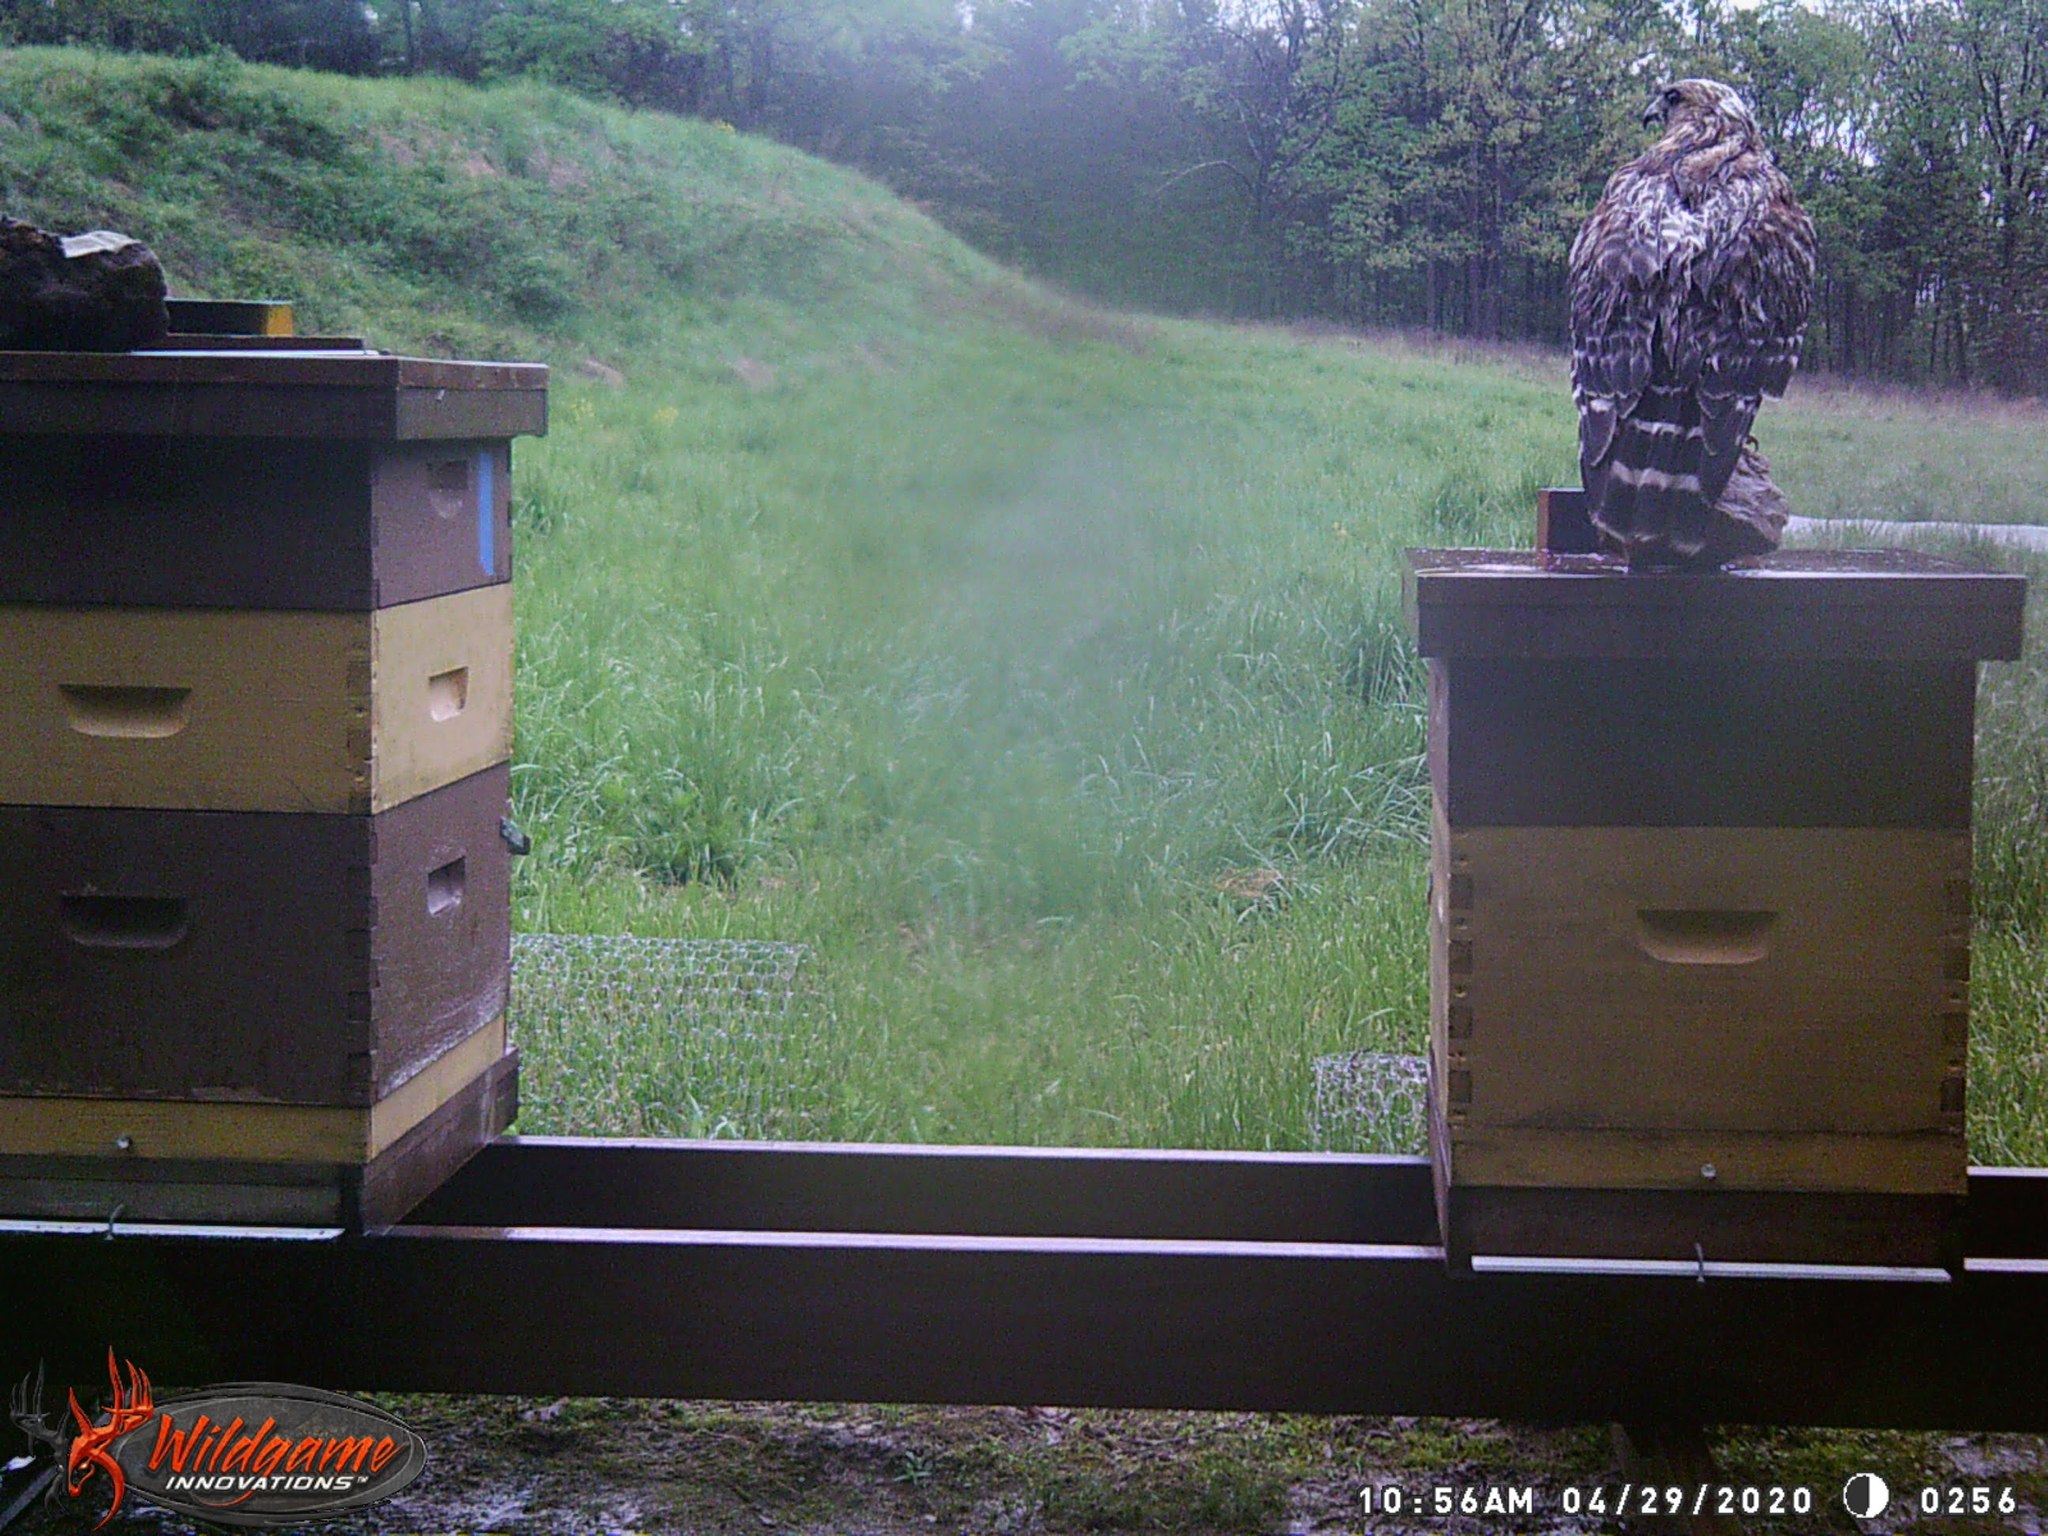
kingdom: Animalia
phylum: Chordata
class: Aves
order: Accipitriformes
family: Accipitridae
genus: Buteo
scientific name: Buteo lineatus
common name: Red-shouldered hawk
